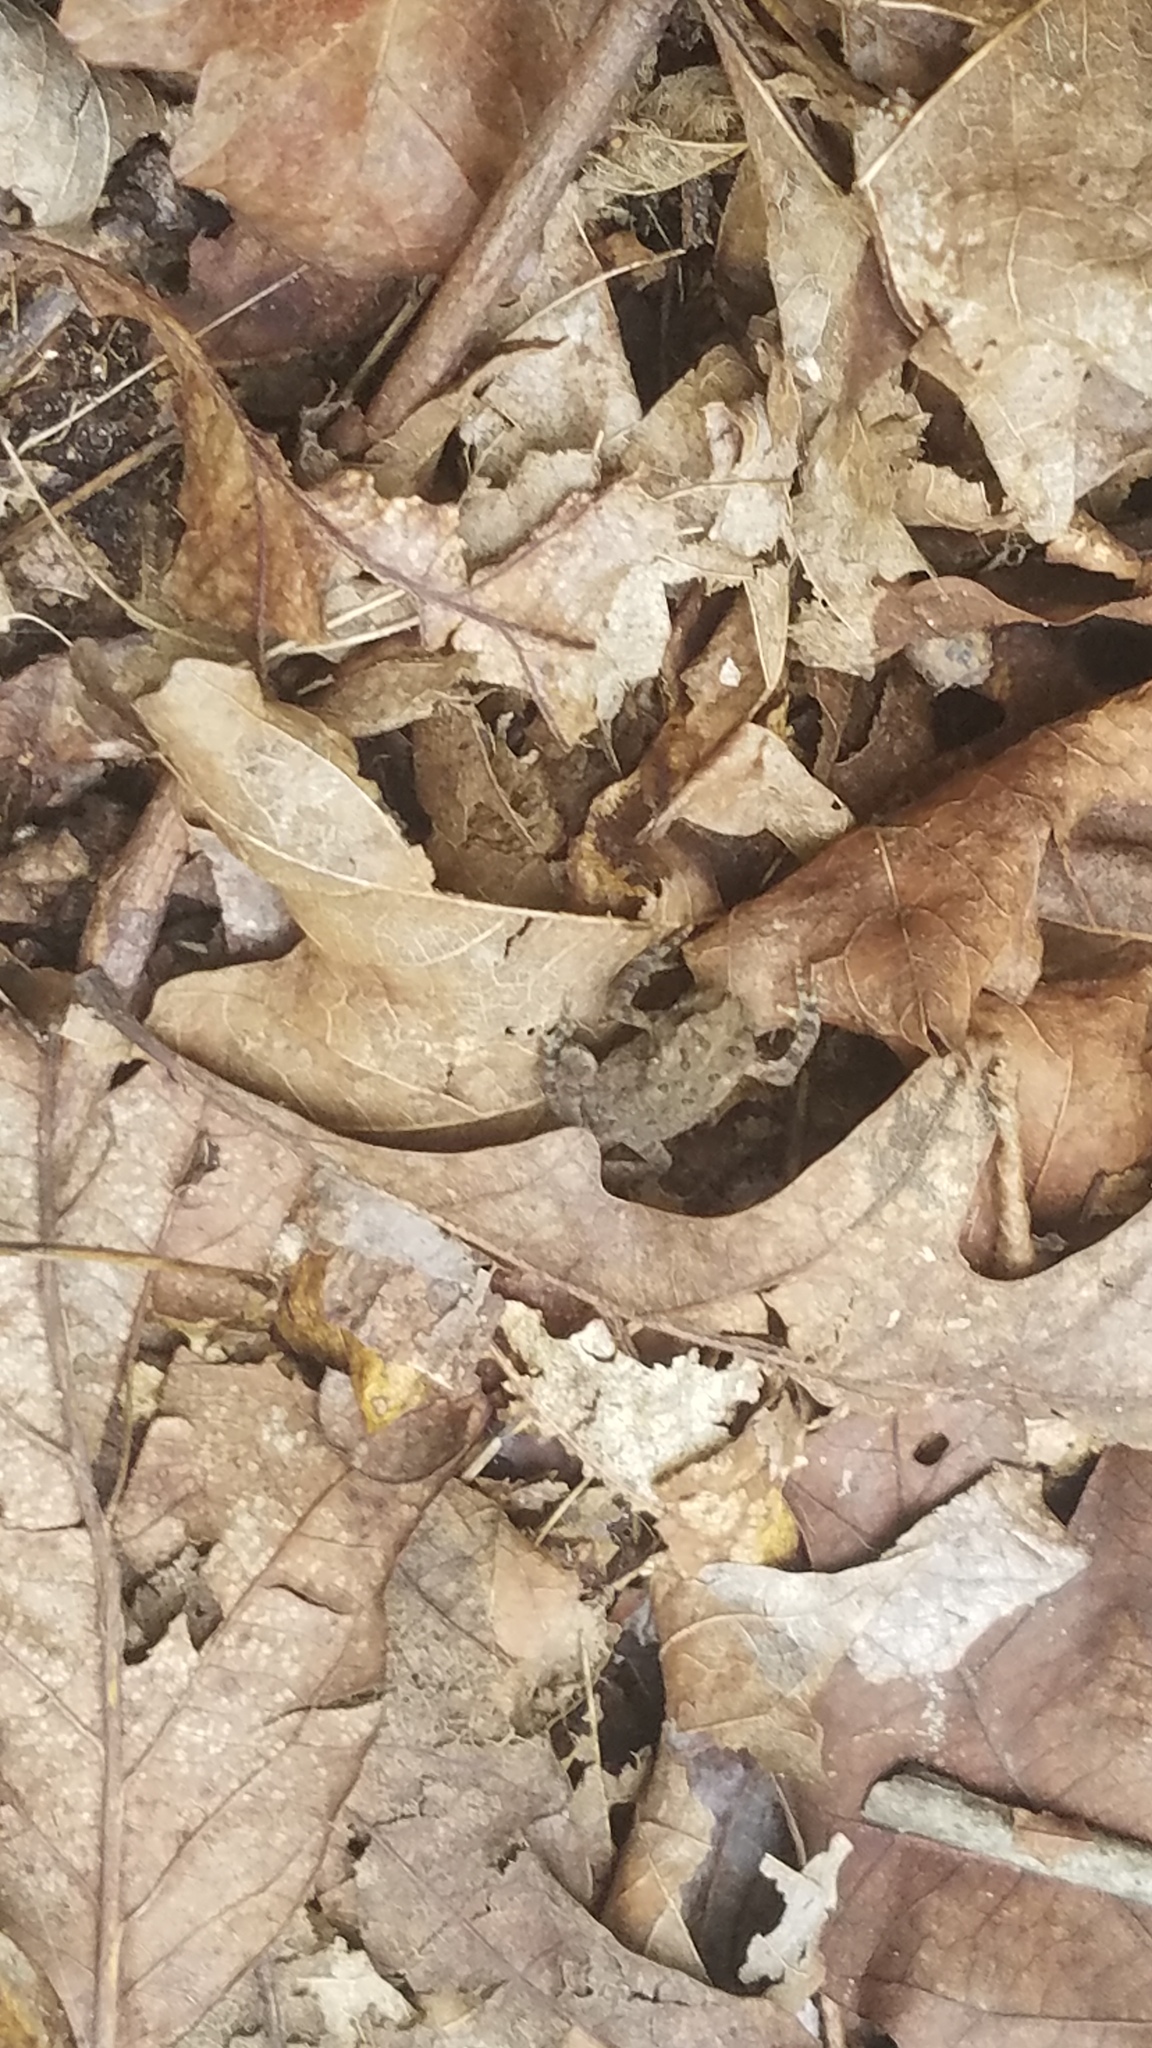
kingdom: Animalia
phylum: Chordata
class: Amphibia
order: Anura
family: Bufonidae
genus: Anaxyrus
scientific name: Anaxyrus americanus
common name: American toad
